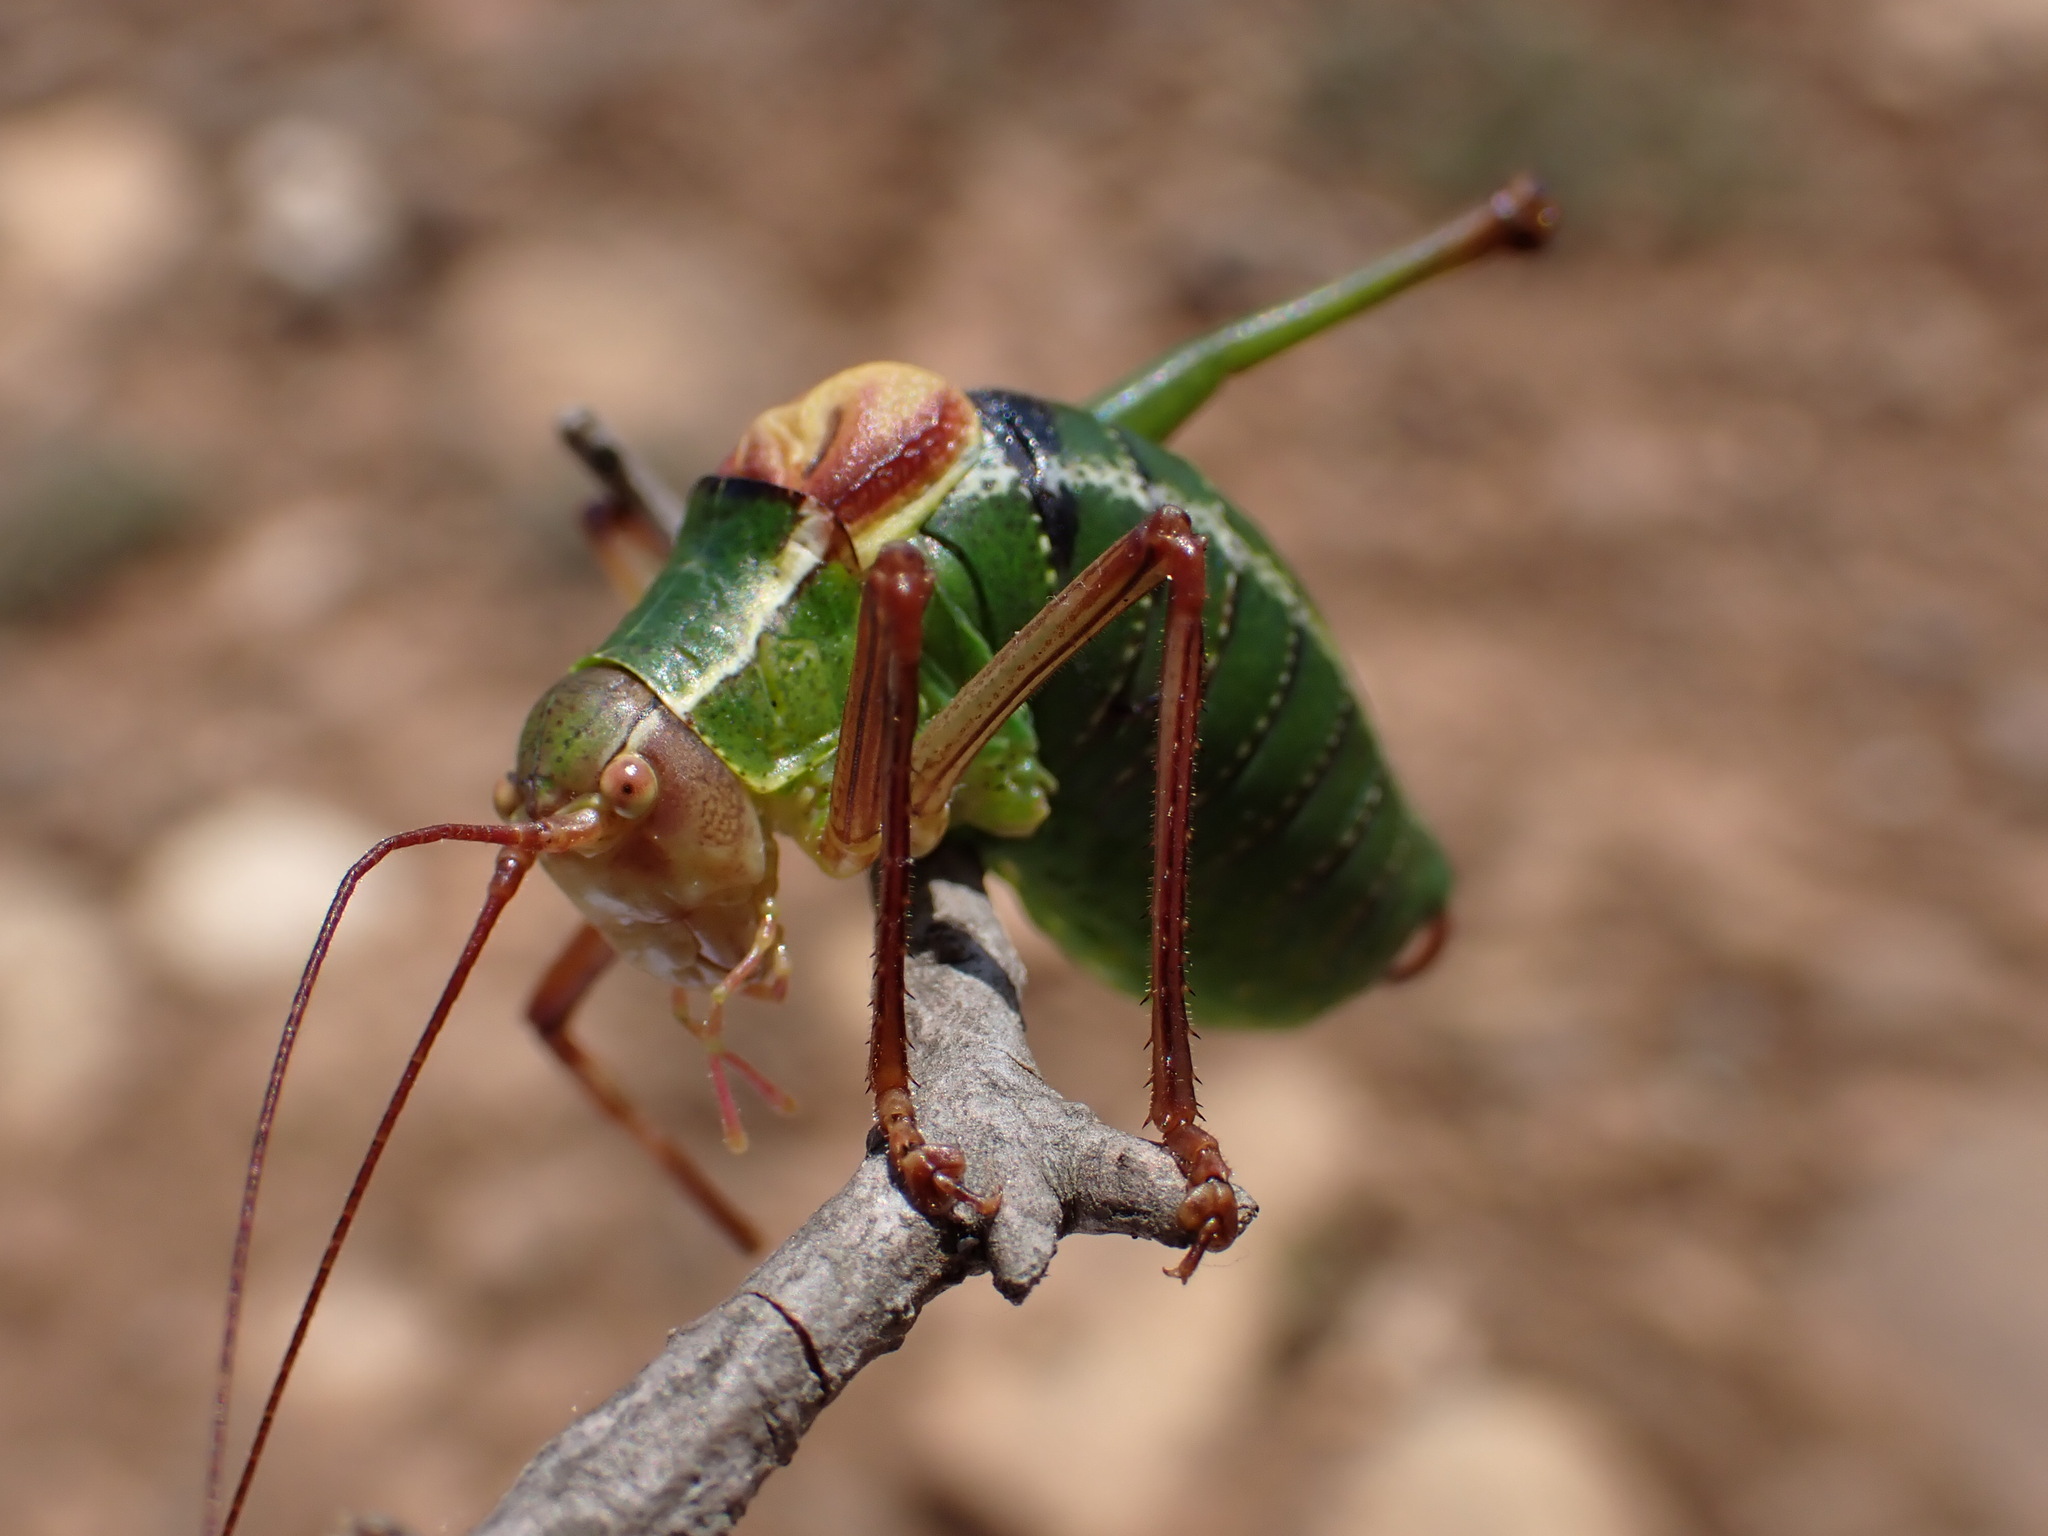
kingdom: Animalia
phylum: Arthropoda
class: Insecta
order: Orthoptera
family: Tettigoniidae
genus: Barbitistes
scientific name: Barbitistes fischeri
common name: Southern saw-tailed bush-cricket
